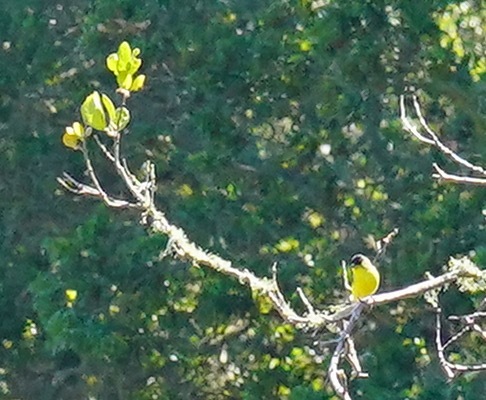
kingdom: Animalia
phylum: Chordata
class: Aves
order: Passeriformes
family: Fringillidae
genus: Spinus
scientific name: Spinus psaltria
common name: Lesser goldfinch
